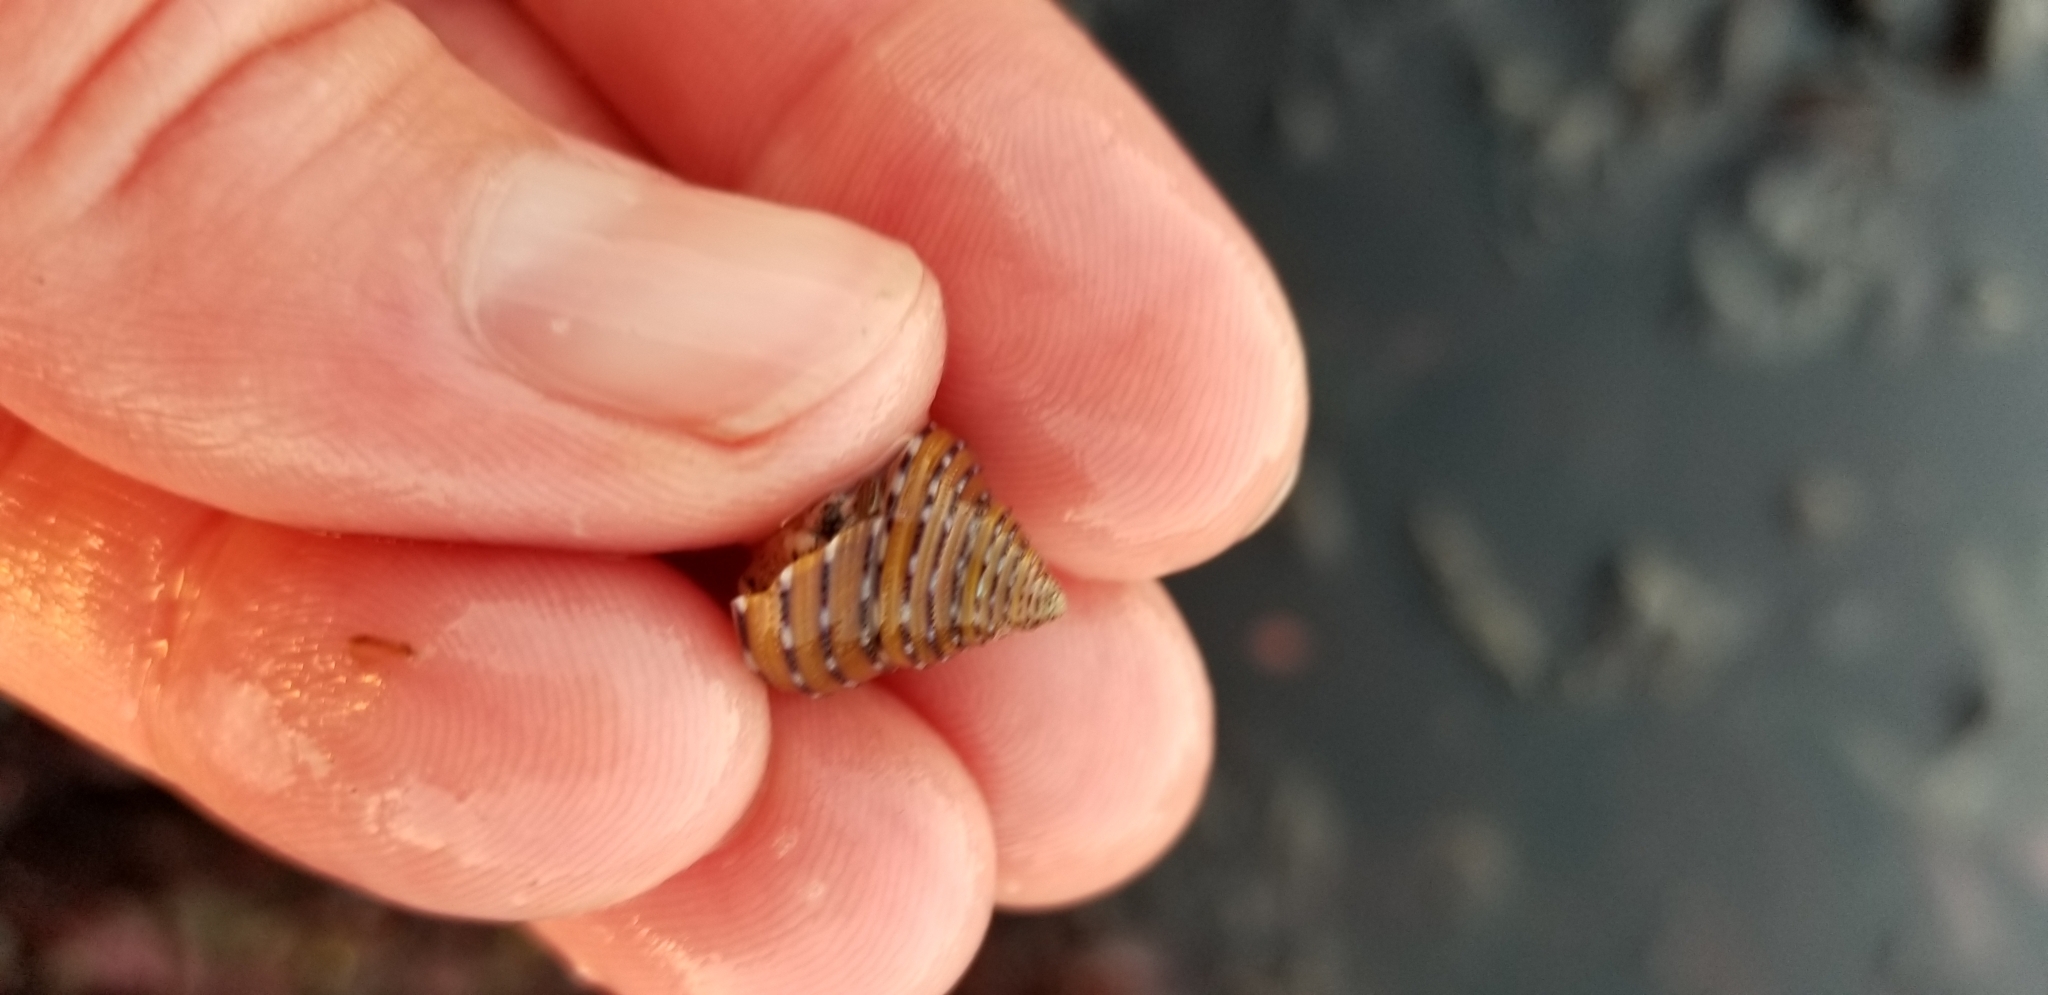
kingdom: Animalia
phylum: Mollusca
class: Gastropoda
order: Trochida
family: Calliostomatidae
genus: Calliostoma
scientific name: Calliostoma tricolor
